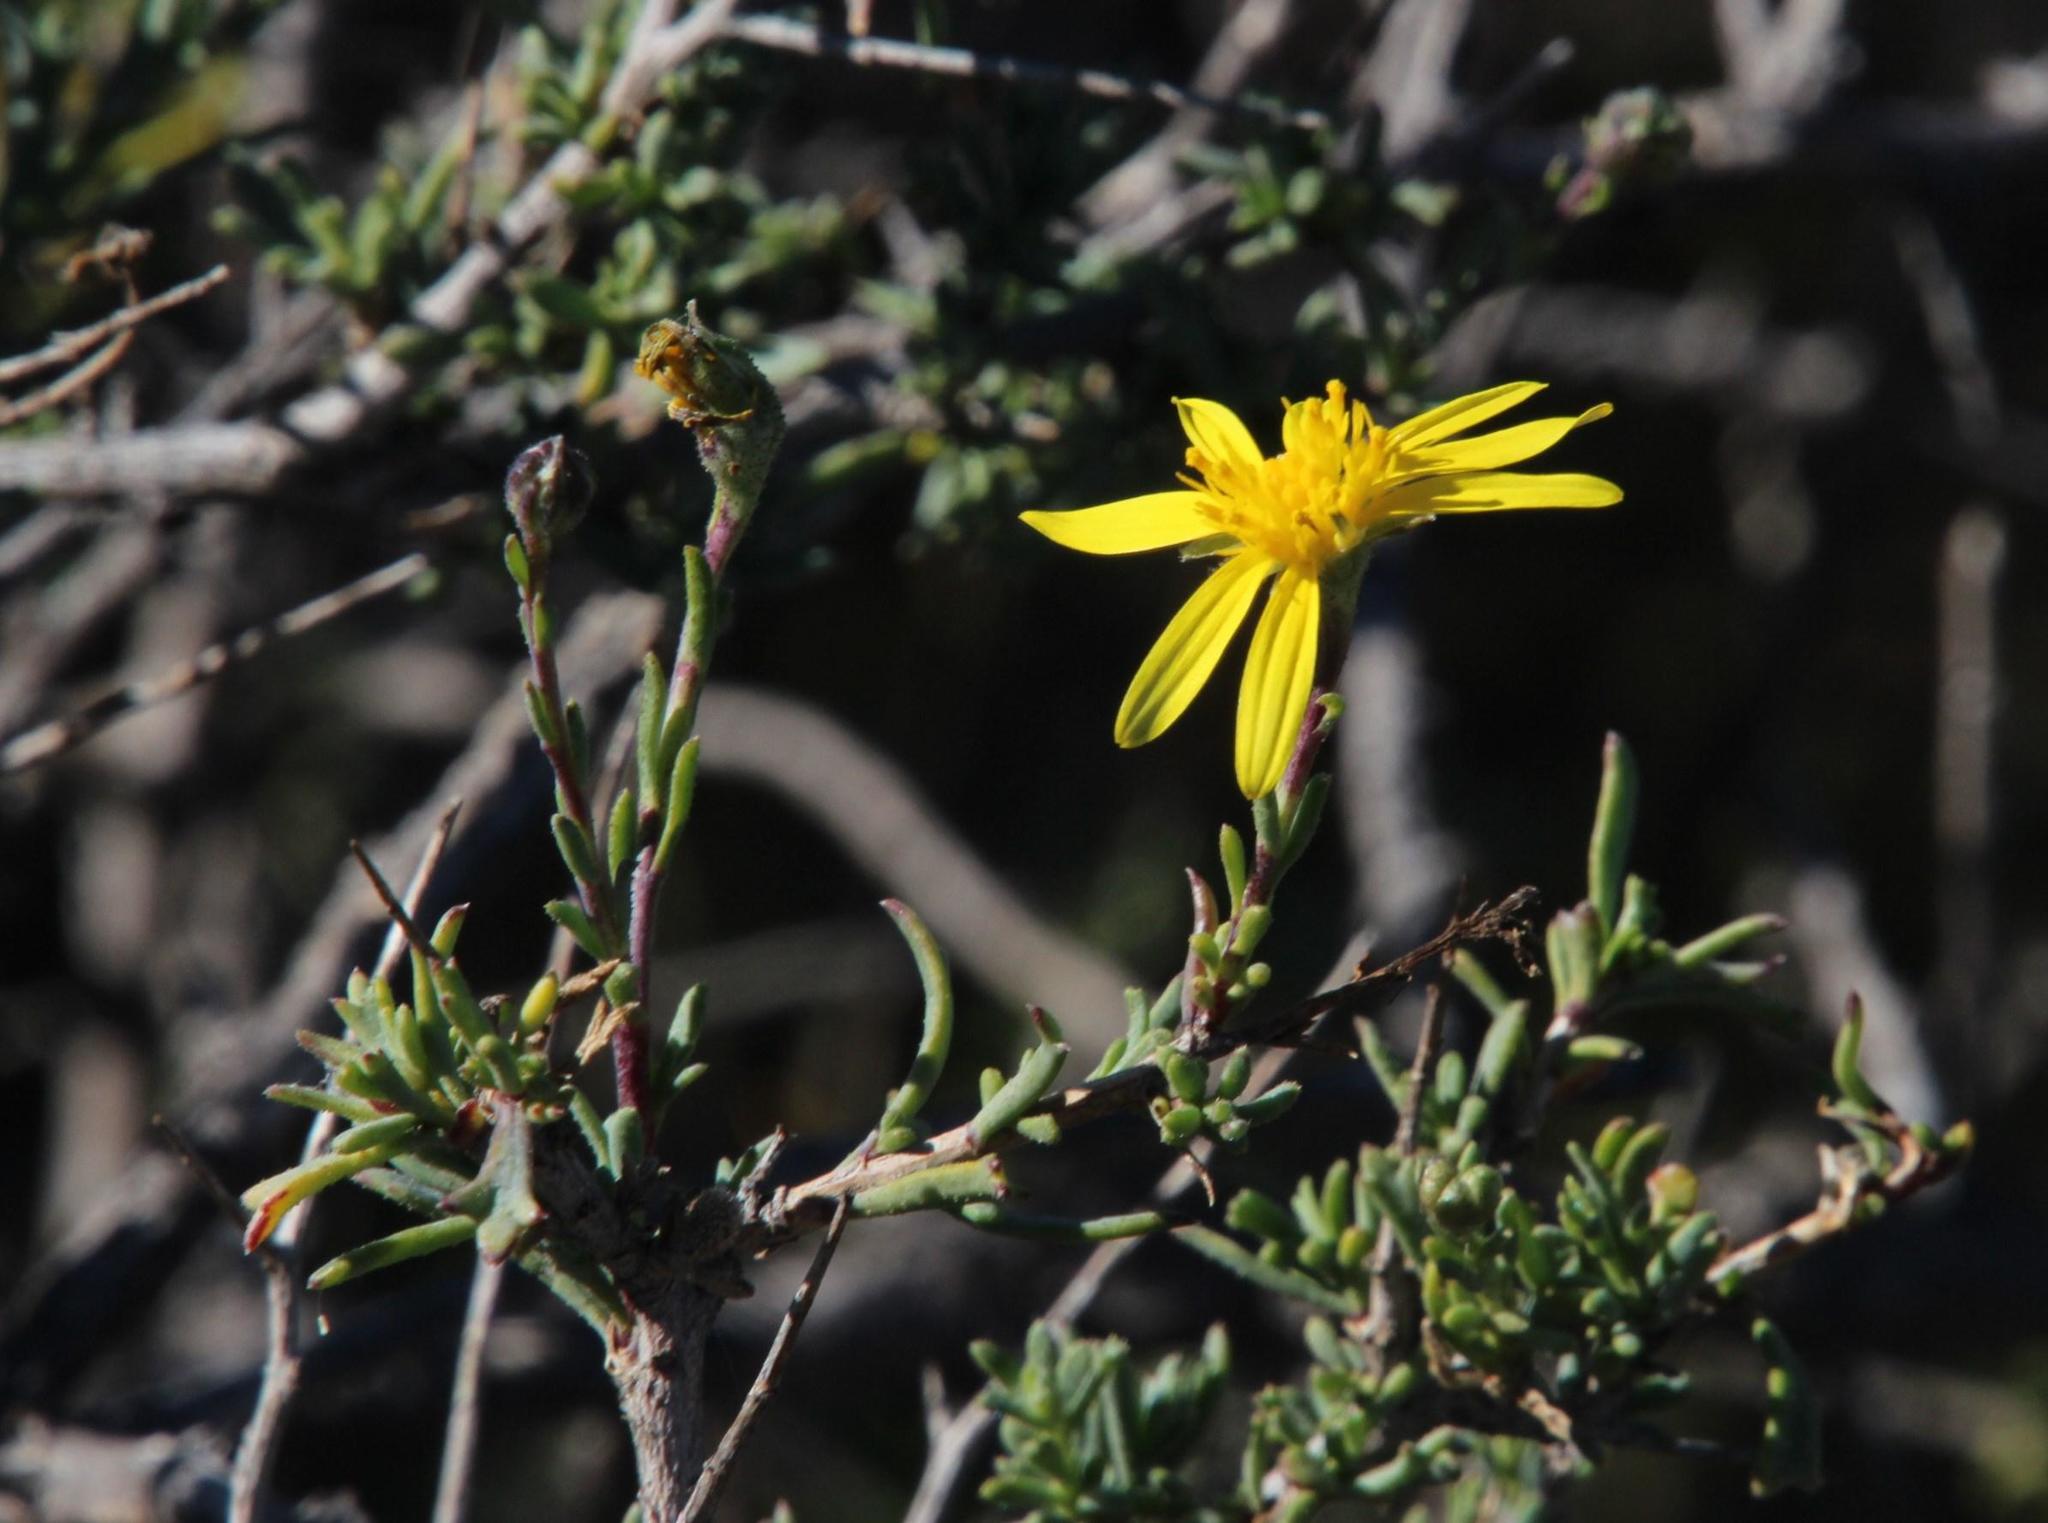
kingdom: Plantae
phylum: Tracheophyta
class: Magnoliopsida
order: Asterales
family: Asteraceae
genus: Osteospermum
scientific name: Osteospermum spinescens
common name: Sunflower
